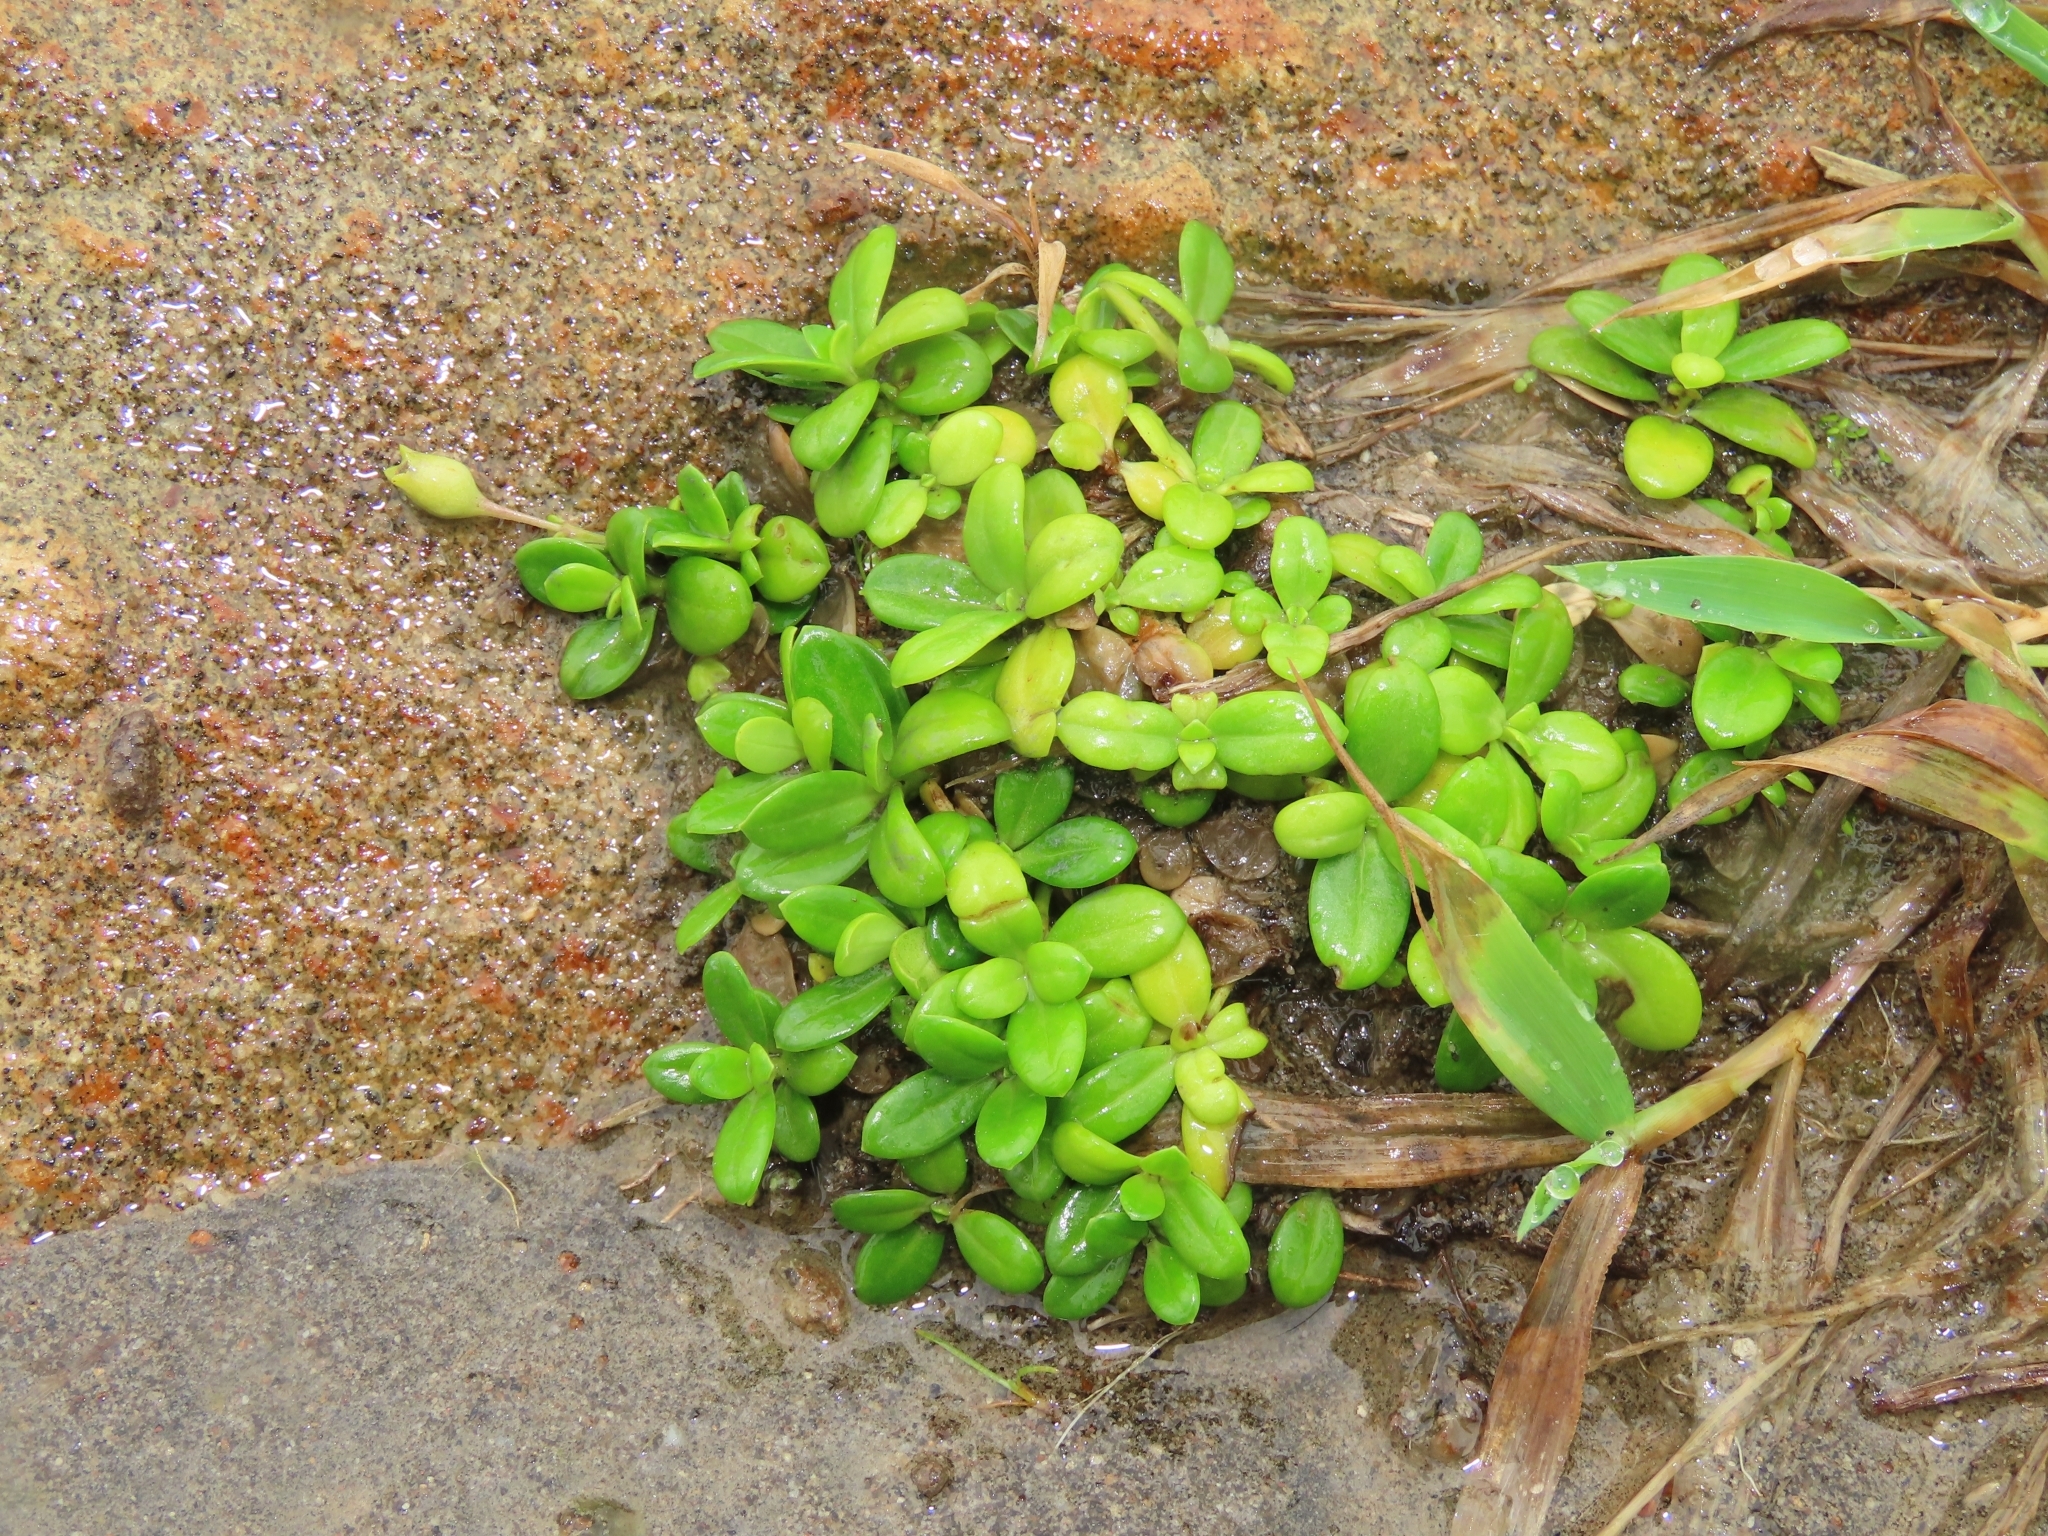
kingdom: Plantae
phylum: Tracheophyta
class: Magnoliopsida
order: Gentianales
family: Rubiaceae
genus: Leptopetalum
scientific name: Leptopetalum strigulosum
